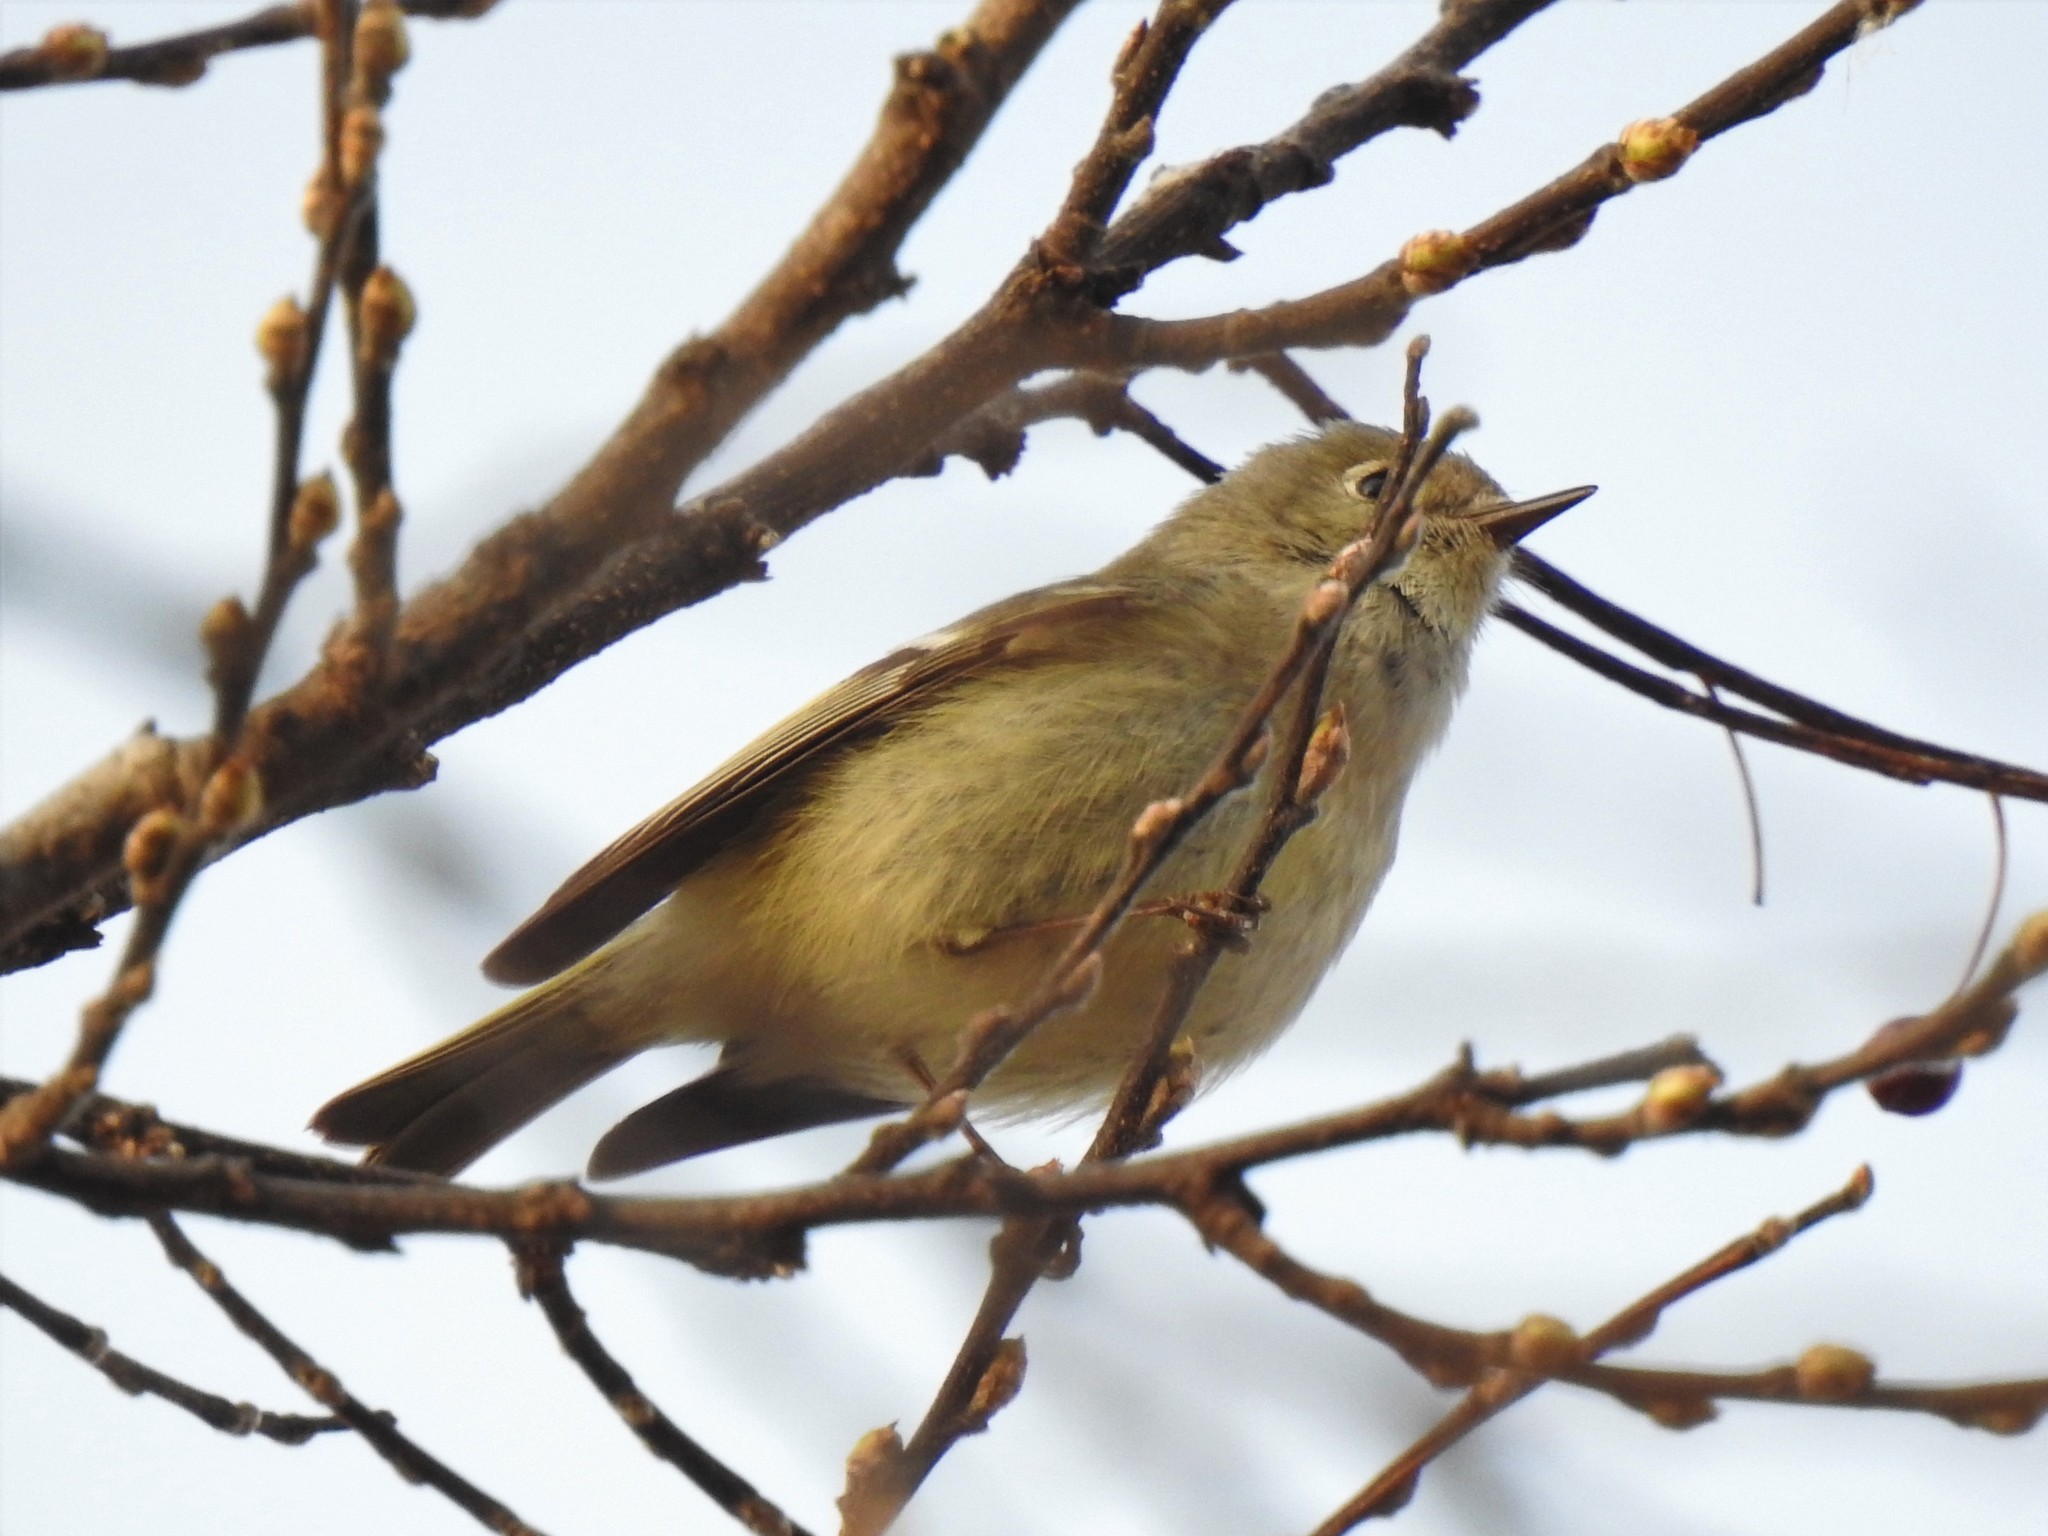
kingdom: Animalia
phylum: Chordata
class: Aves
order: Passeriformes
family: Regulidae
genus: Regulus
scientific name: Regulus calendula
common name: Ruby-crowned kinglet
